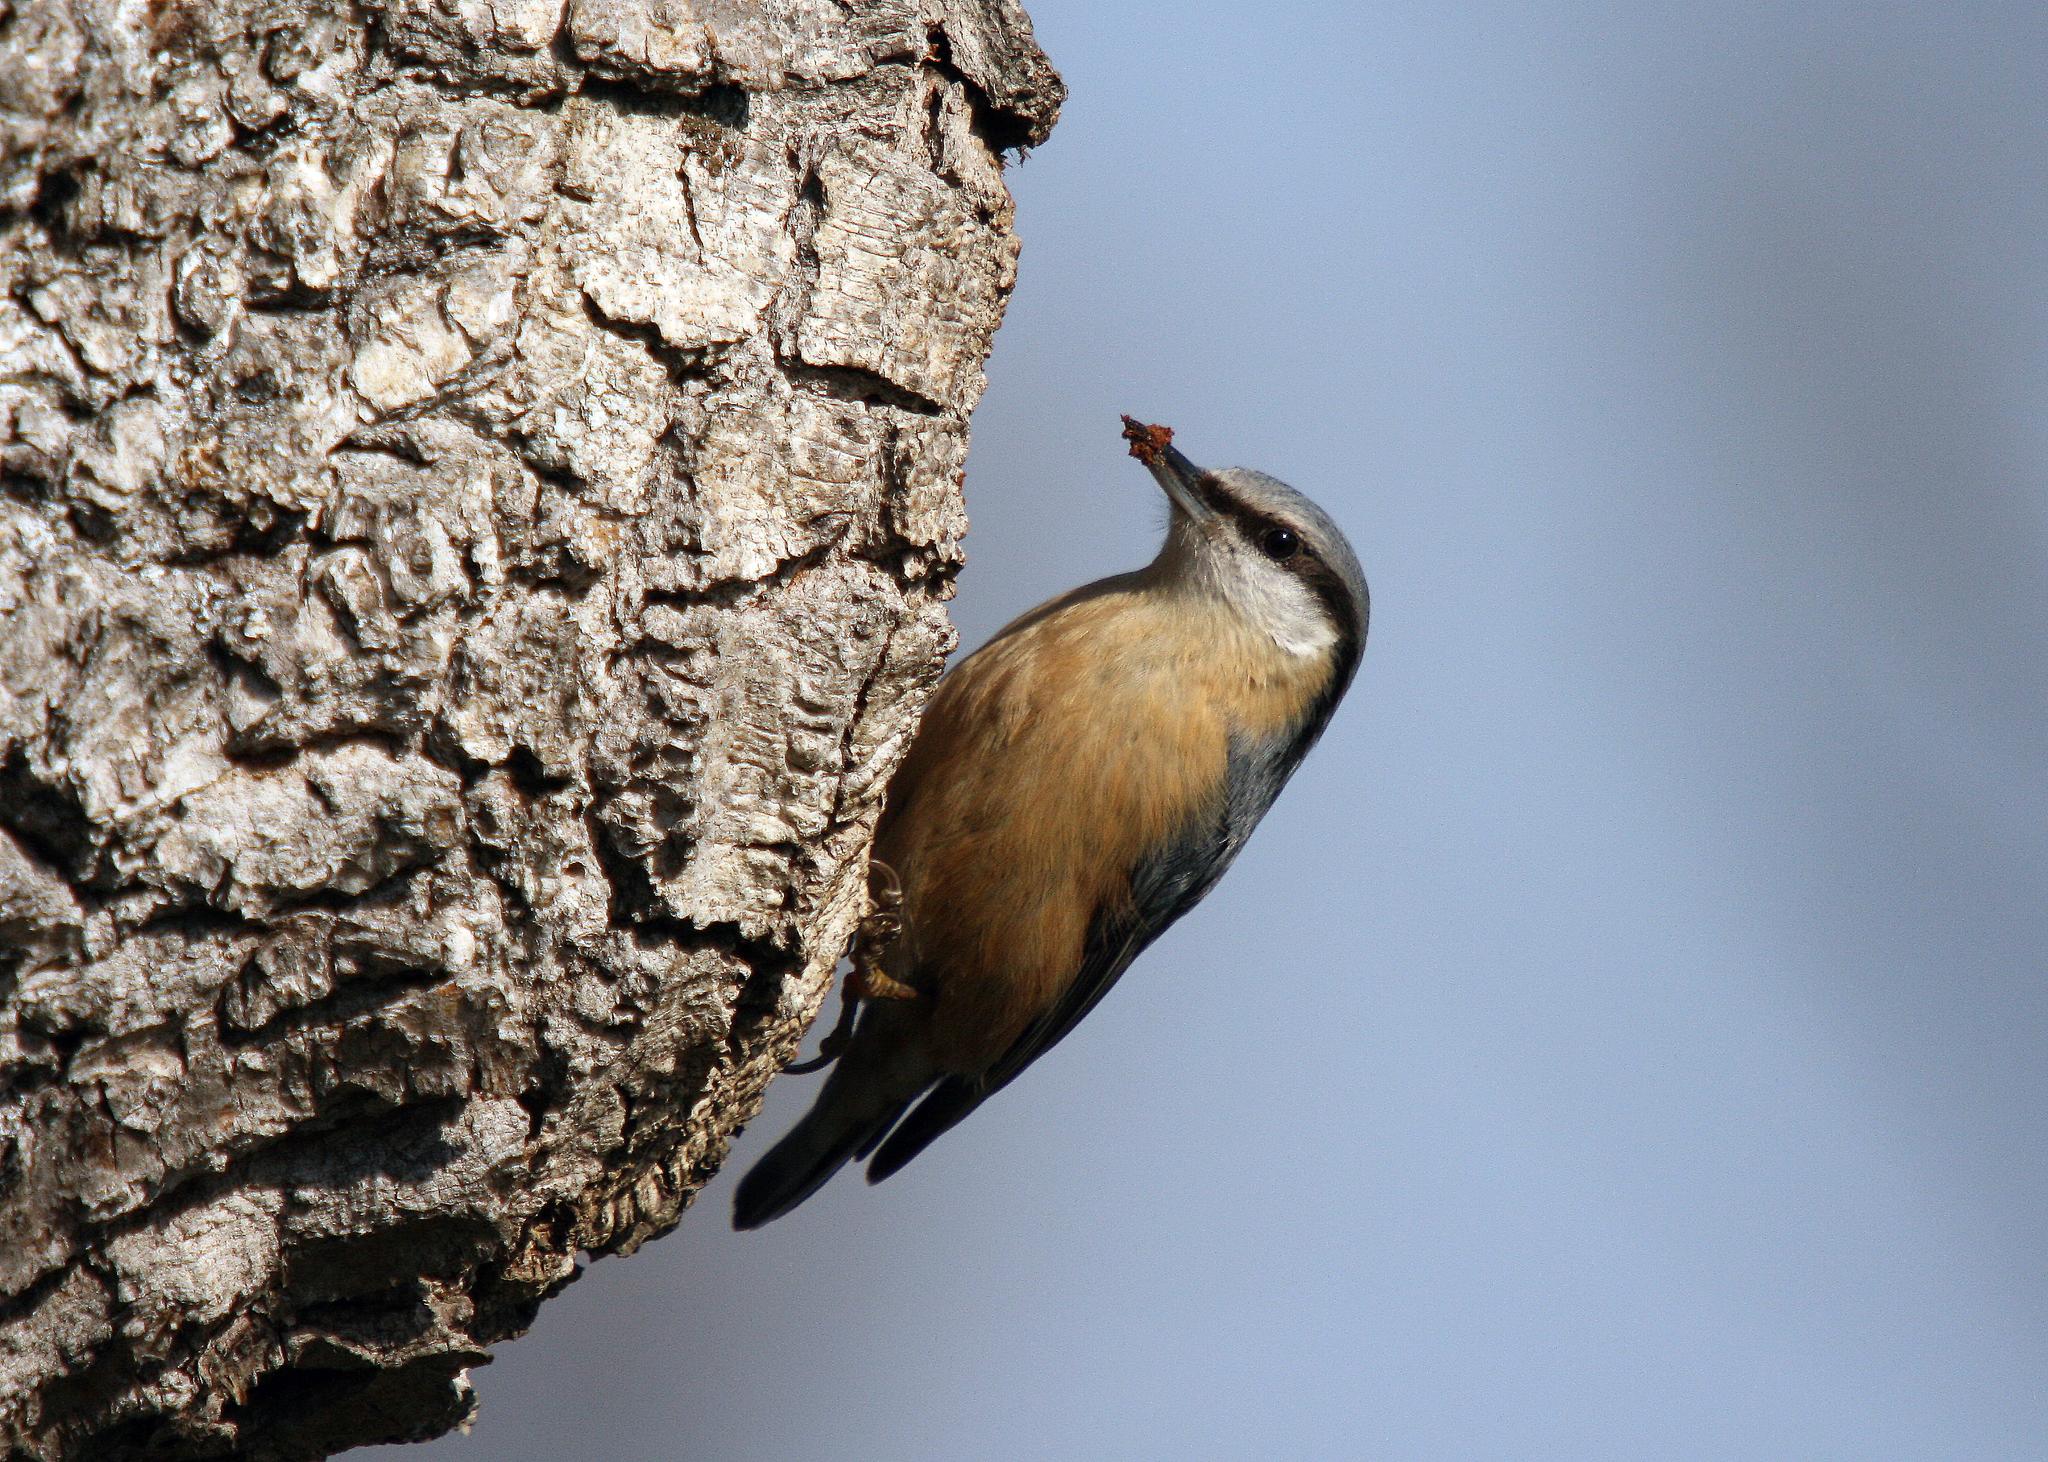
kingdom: Animalia
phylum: Chordata
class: Aves
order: Passeriformes
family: Sittidae
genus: Sitta
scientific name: Sitta europaea
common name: Eurasian nuthatch
